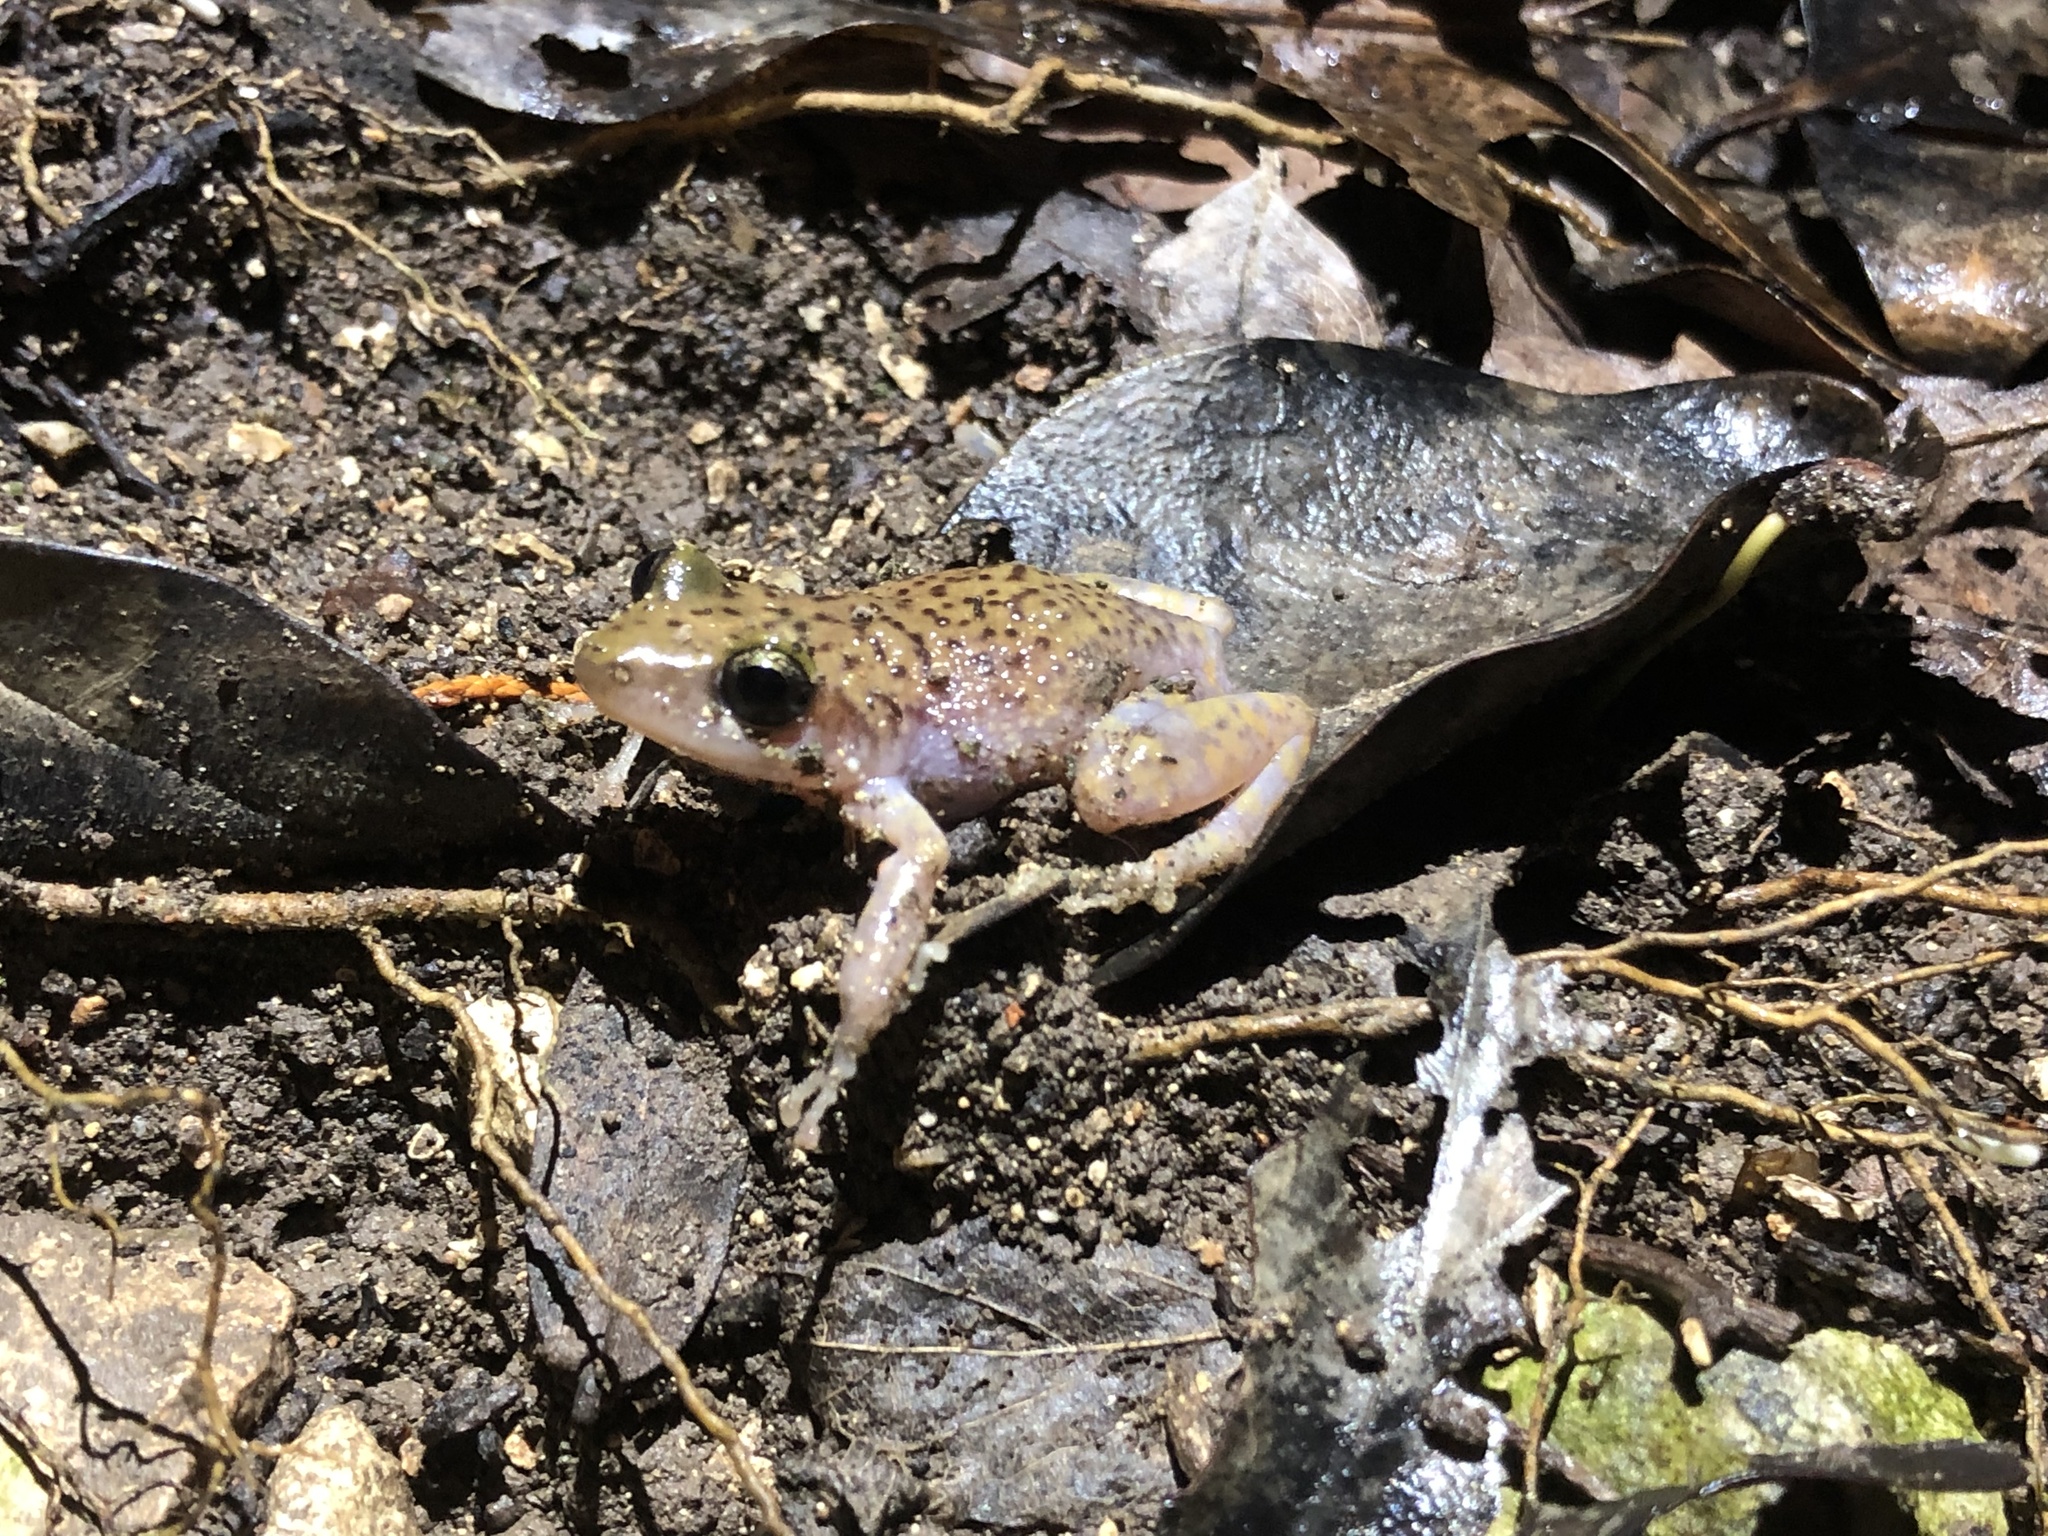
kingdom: Animalia
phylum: Chordata
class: Amphibia
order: Anura
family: Eleutherodactylidae
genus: Eleutherodactylus
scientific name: Eleutherodactylus marnockii
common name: Cliff chirping frog
